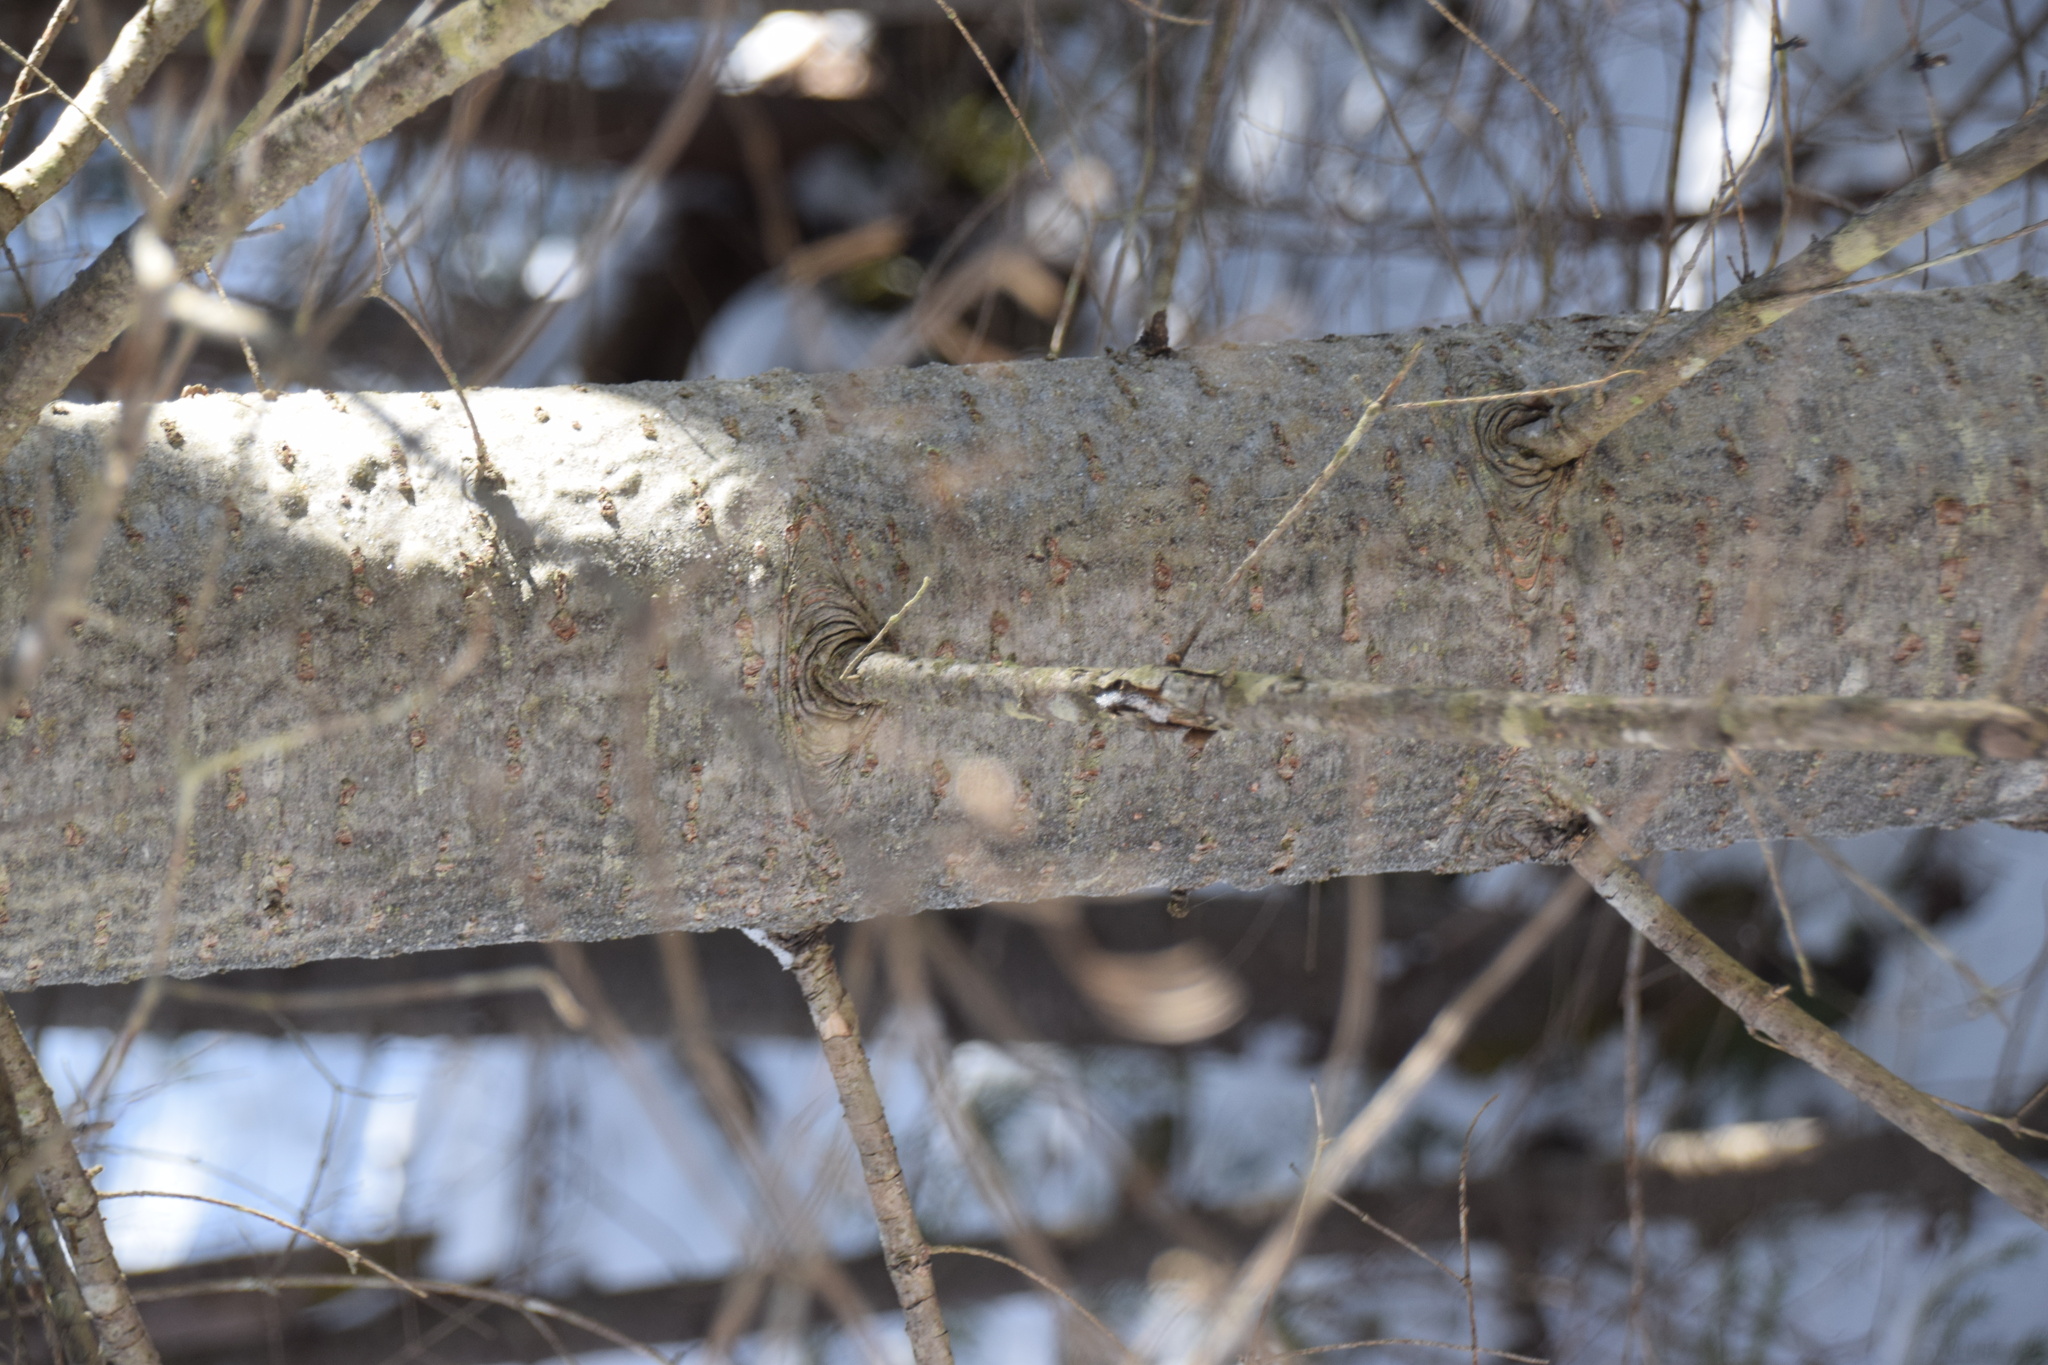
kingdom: Plantae
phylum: Tracheophyta
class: Pinopsida
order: Pinales
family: Pinaceae
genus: Abies
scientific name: Abies balsamea
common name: Balsam fir
